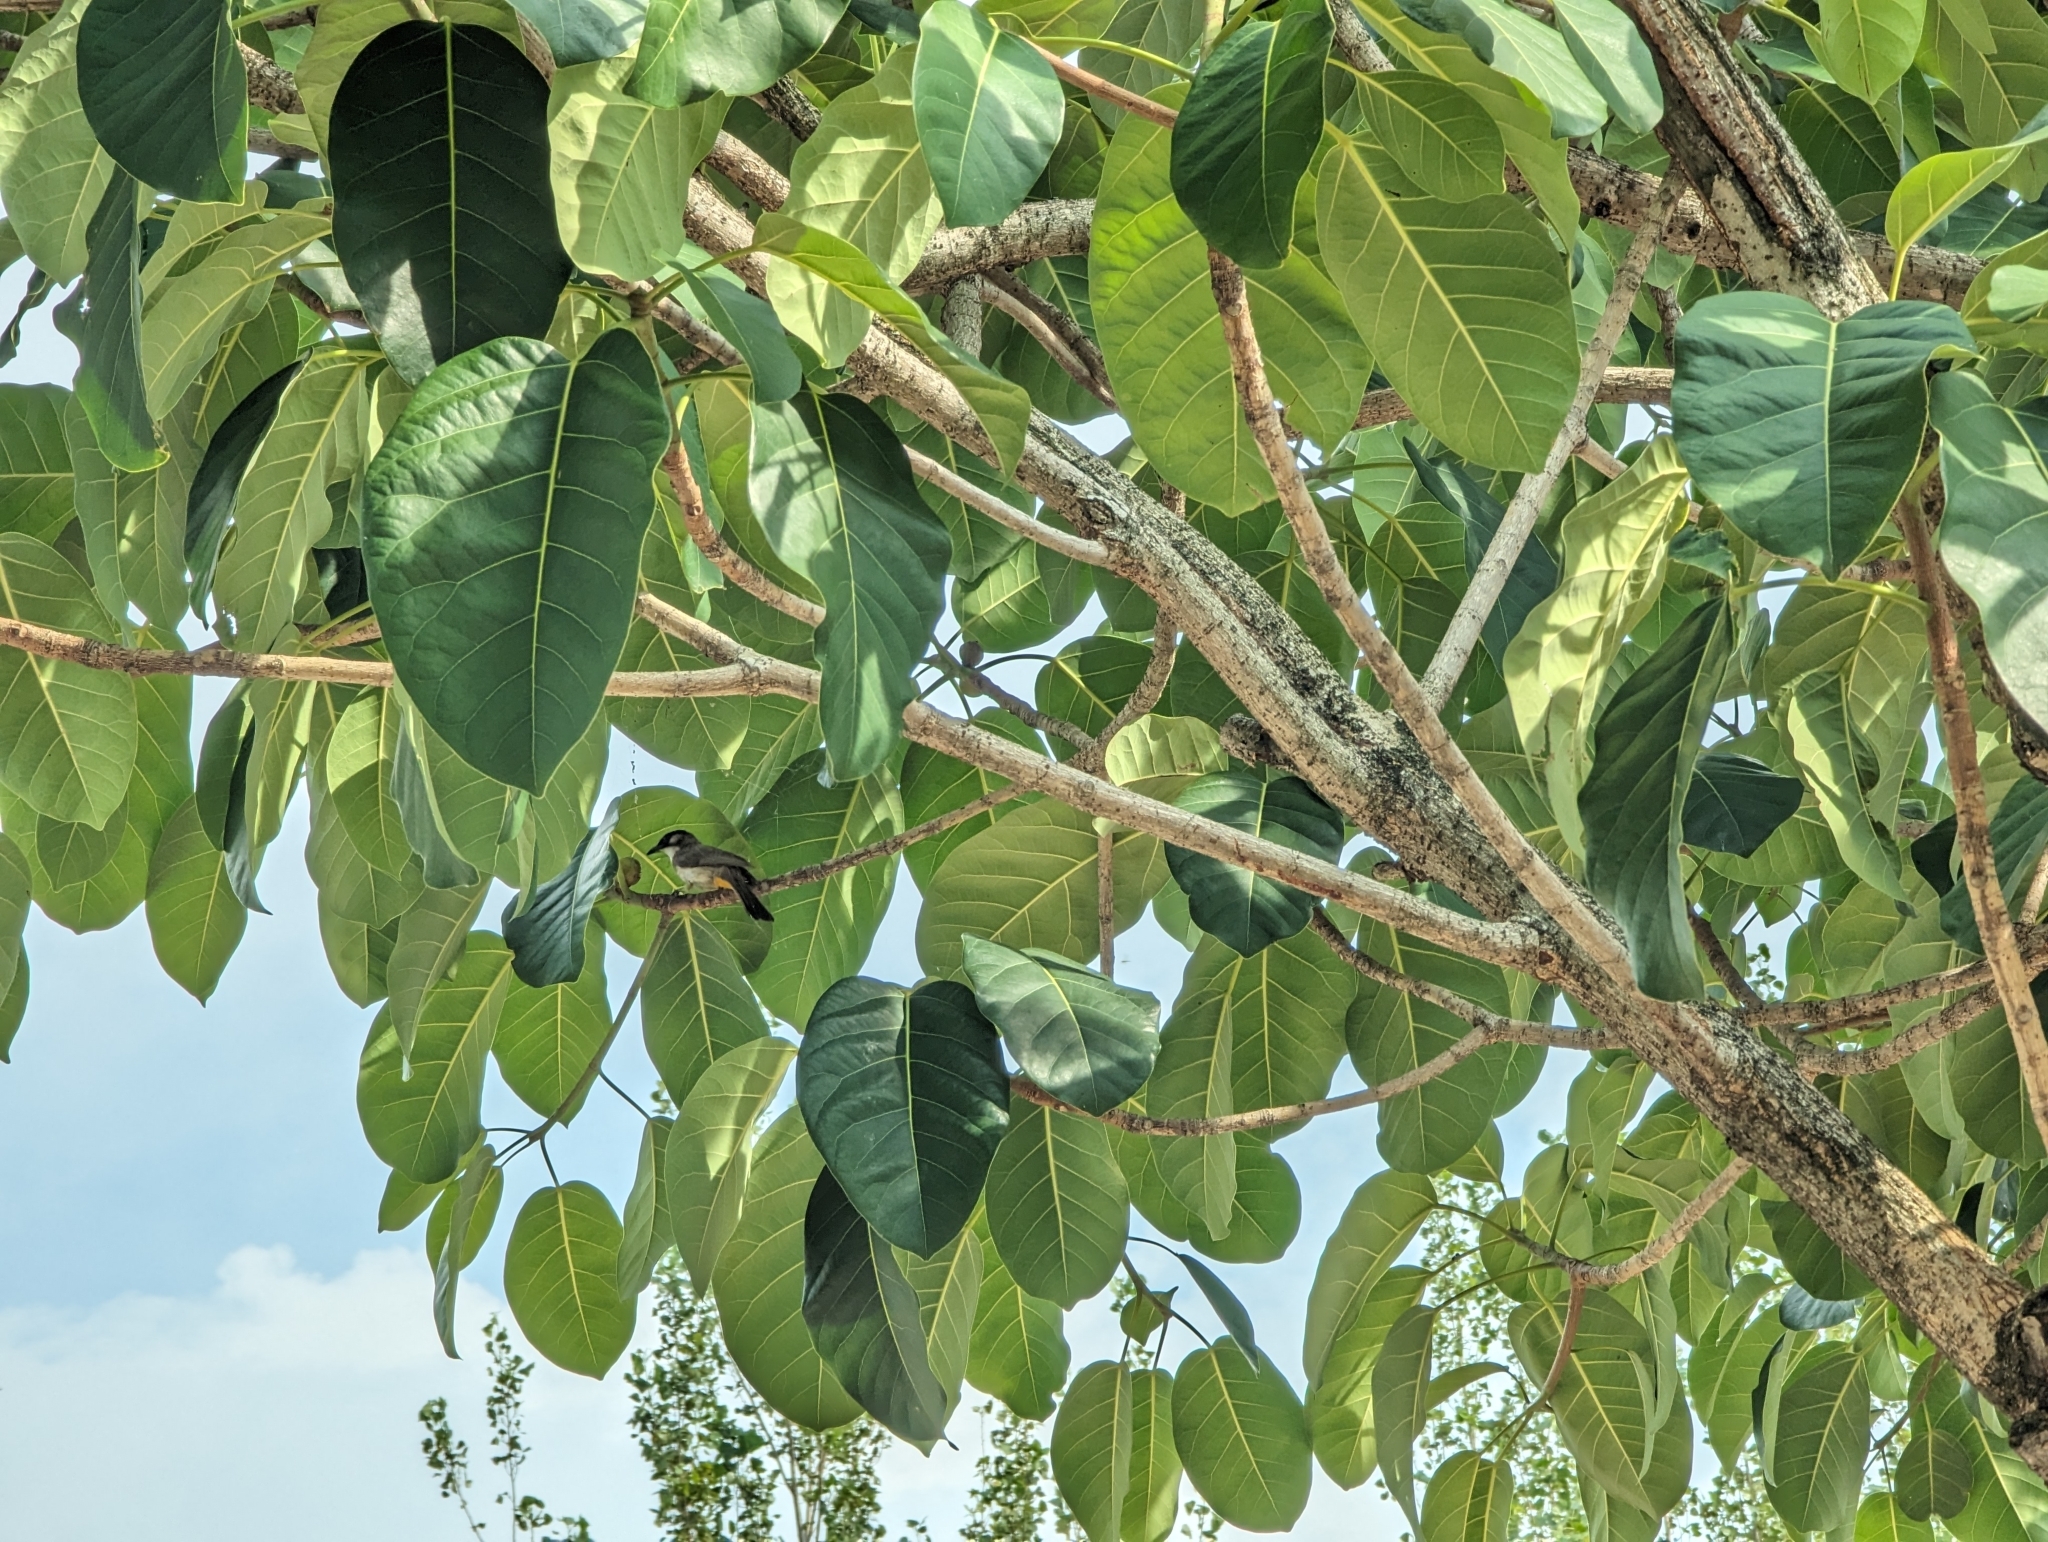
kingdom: Animalia
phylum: Chordata
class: Aves
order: Passeriformes
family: Pycnonotidae
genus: Pycnonotus
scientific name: Pycnonotus xanthorrhous
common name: Brown-breasted bulbul
